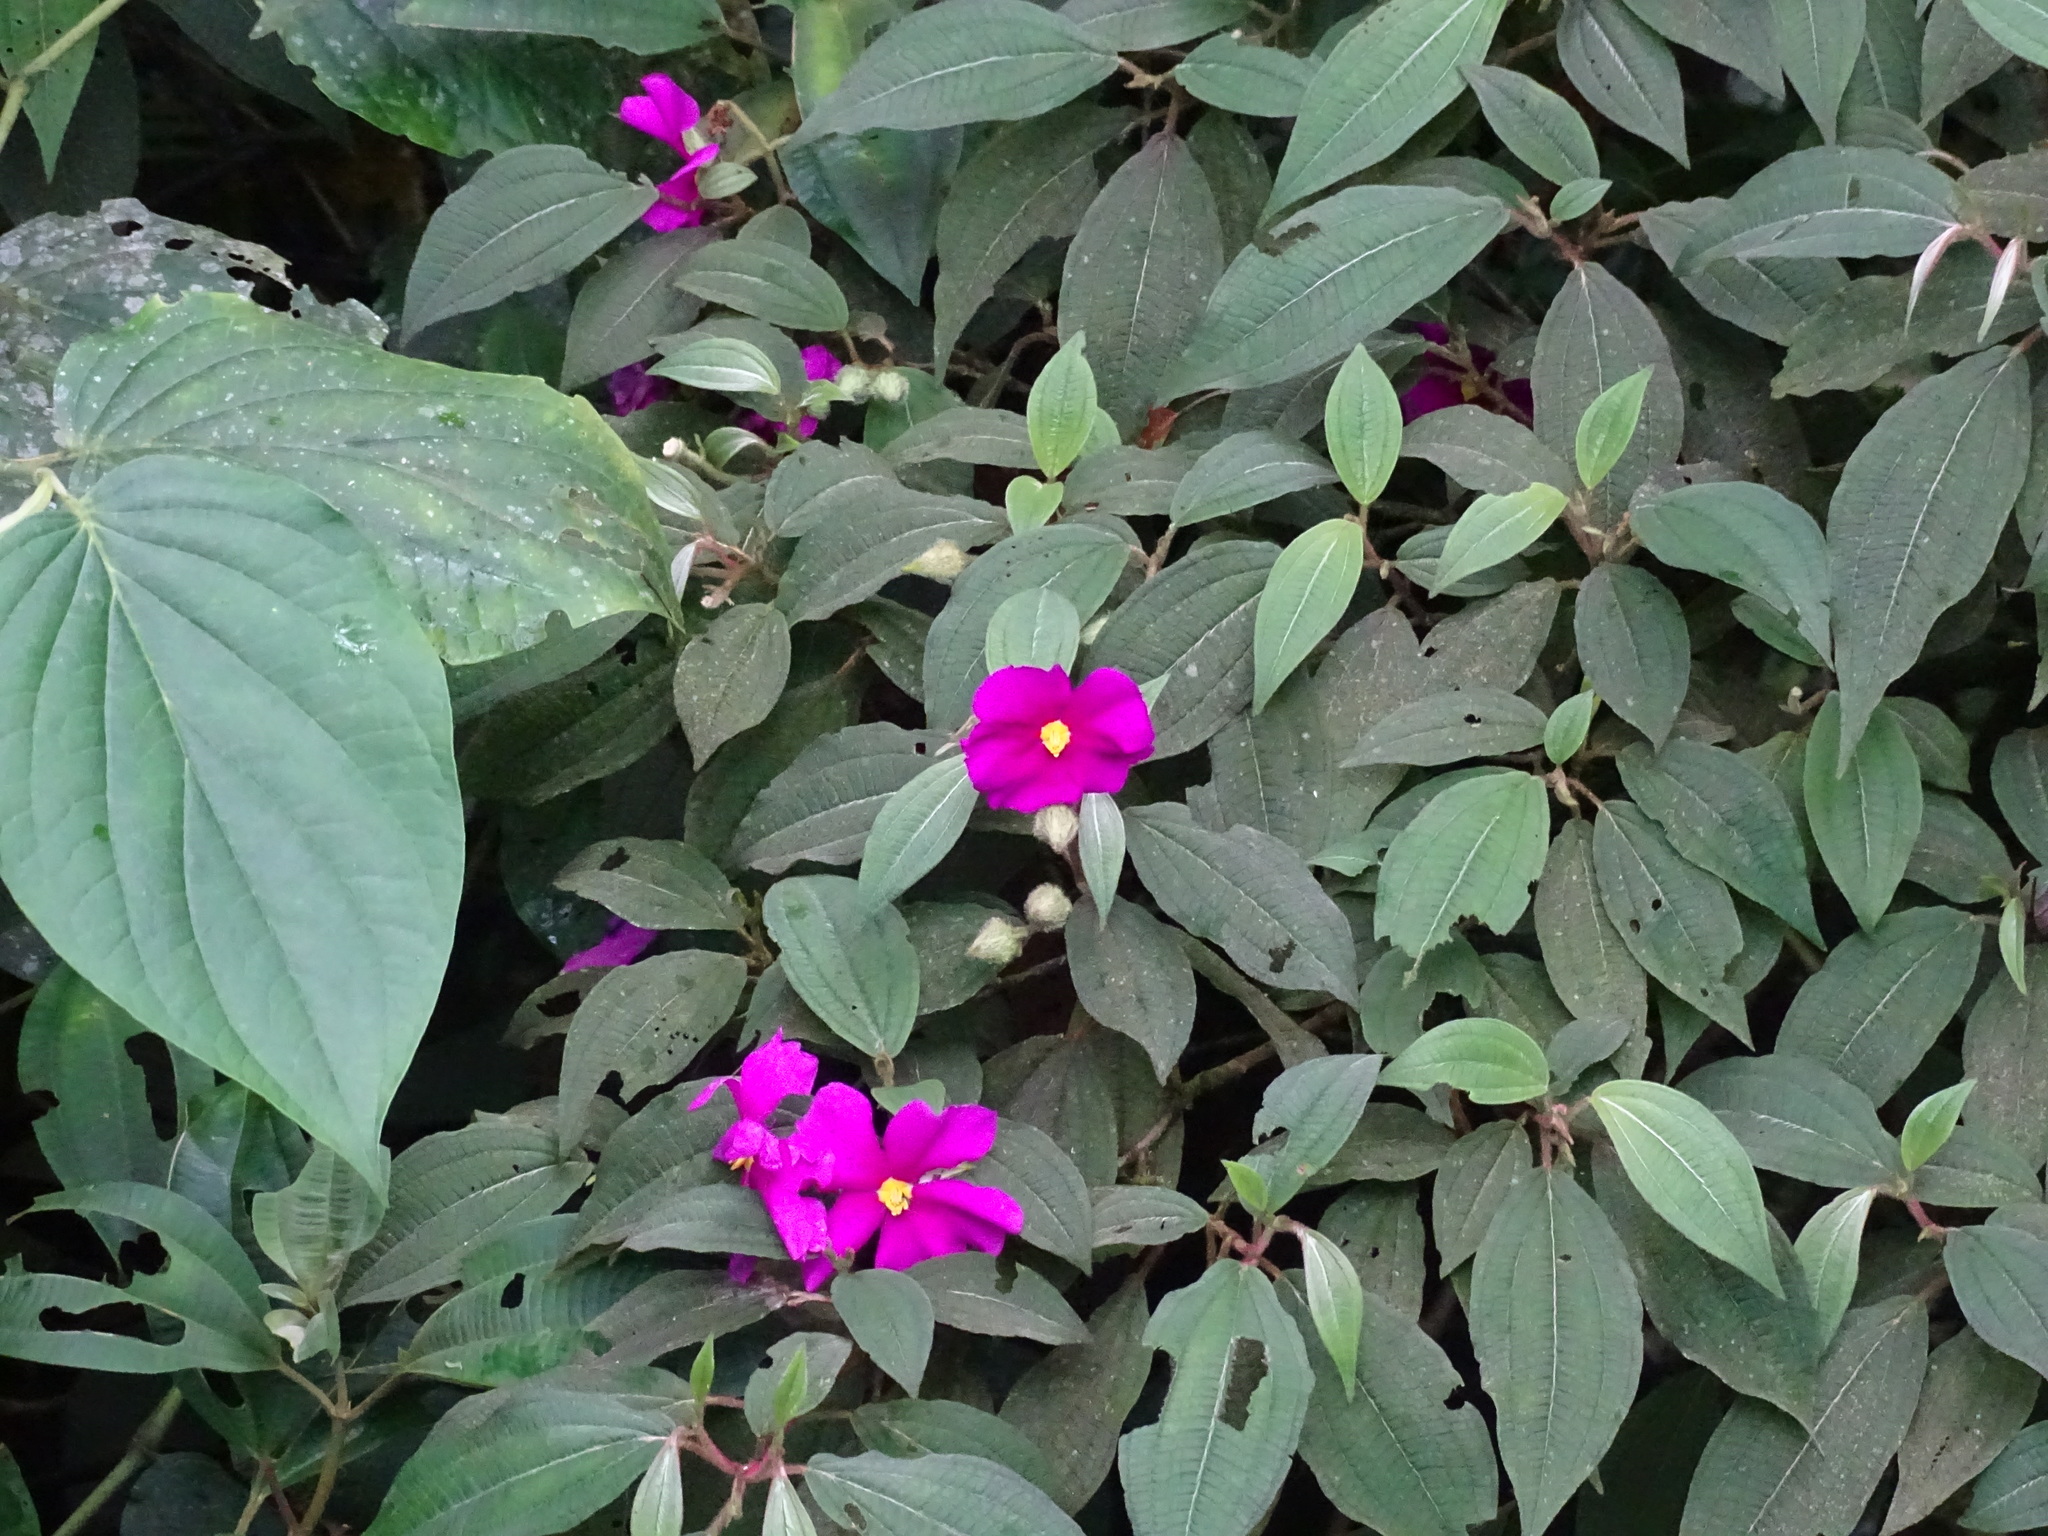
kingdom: Plantae
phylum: Tracheophyta
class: Magnoliopsida
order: Myrtales
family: Melastomataceae
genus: Allomaieta
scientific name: Allomaieta hirsuta
